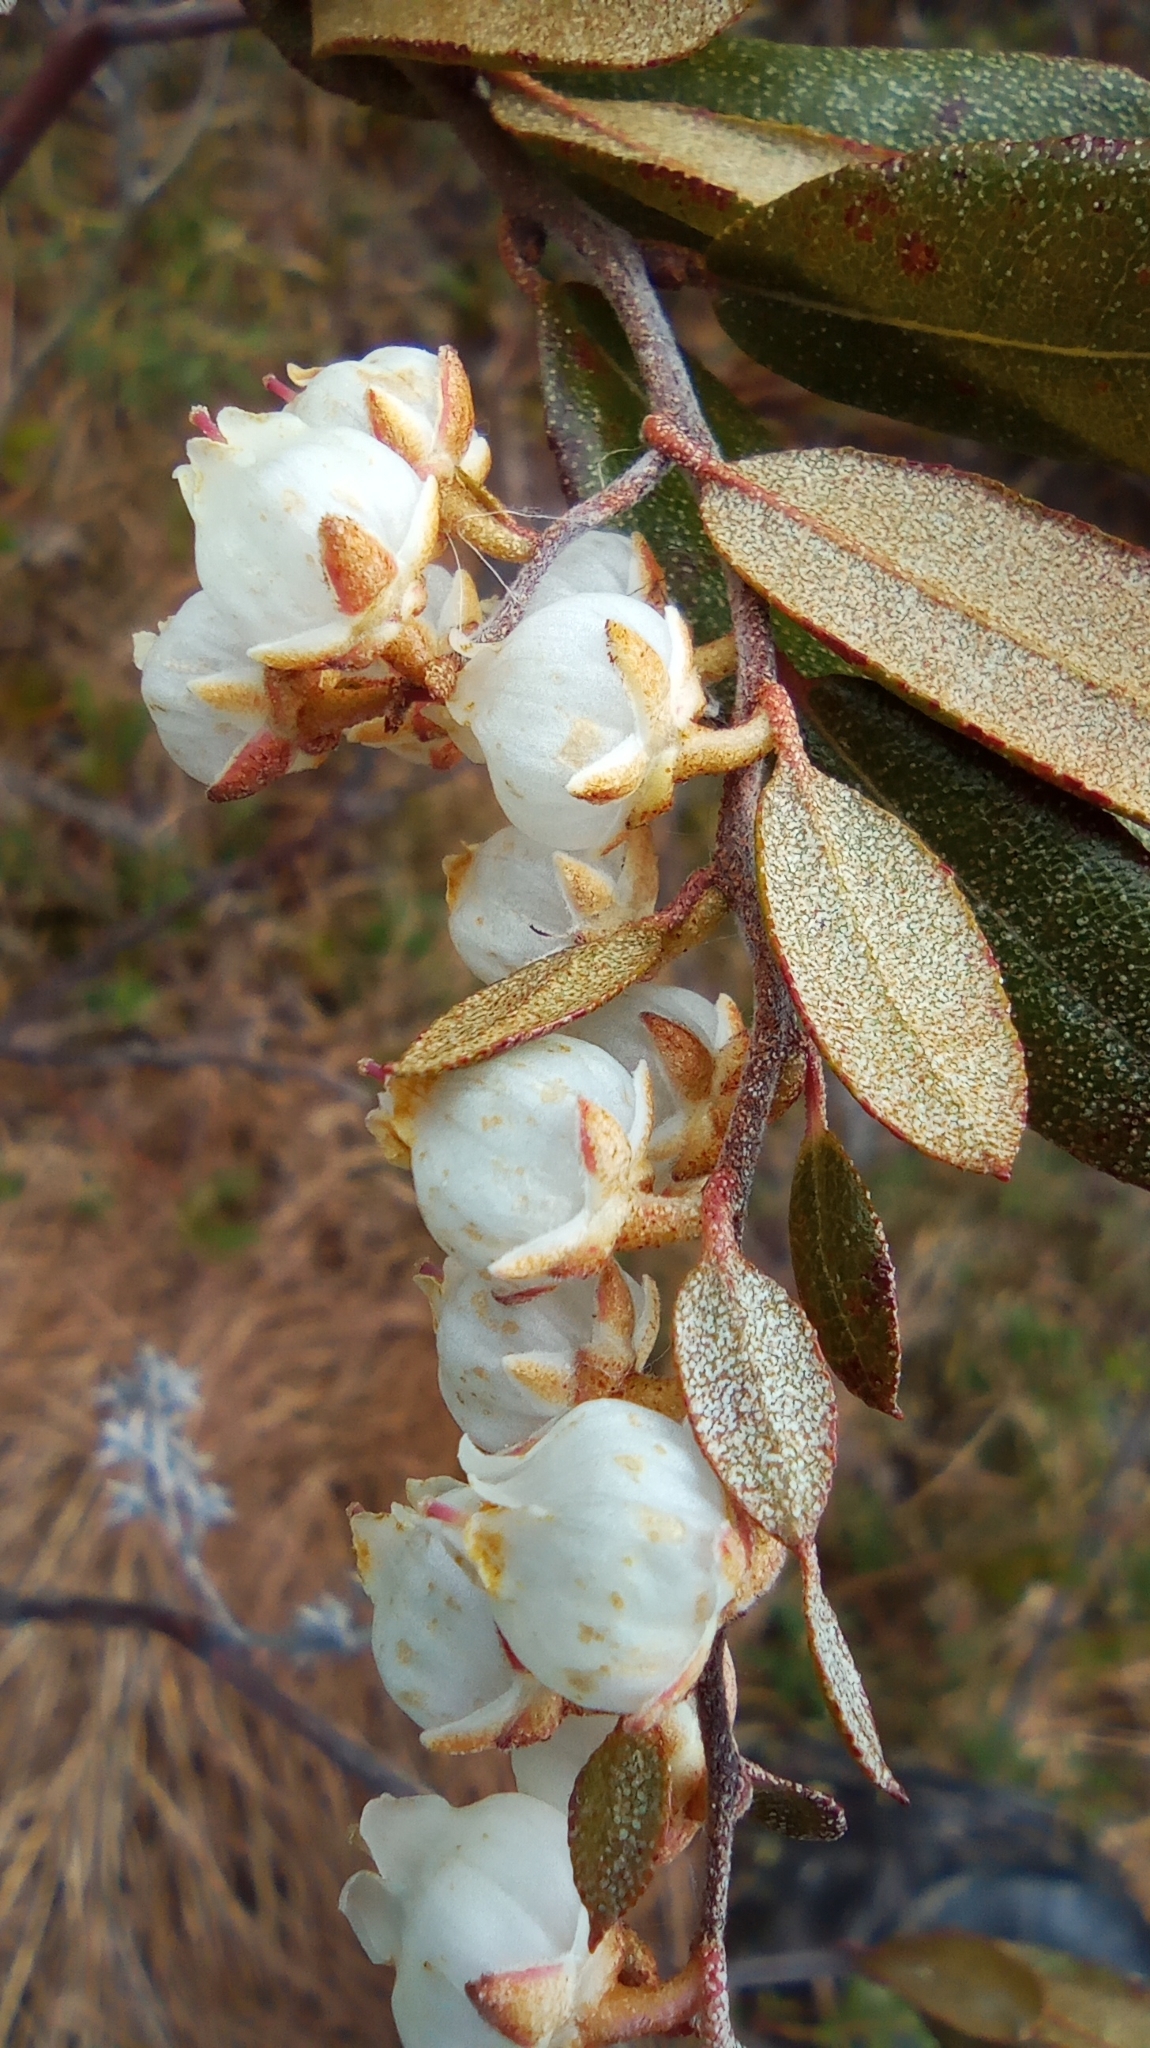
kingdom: Plantae
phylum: Tracheophyta
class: Magnoliopsida
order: Ericales
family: Ericaceae
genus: Chamaedaphne
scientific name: Chamaedaphne calyculata
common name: Leatherleaf
